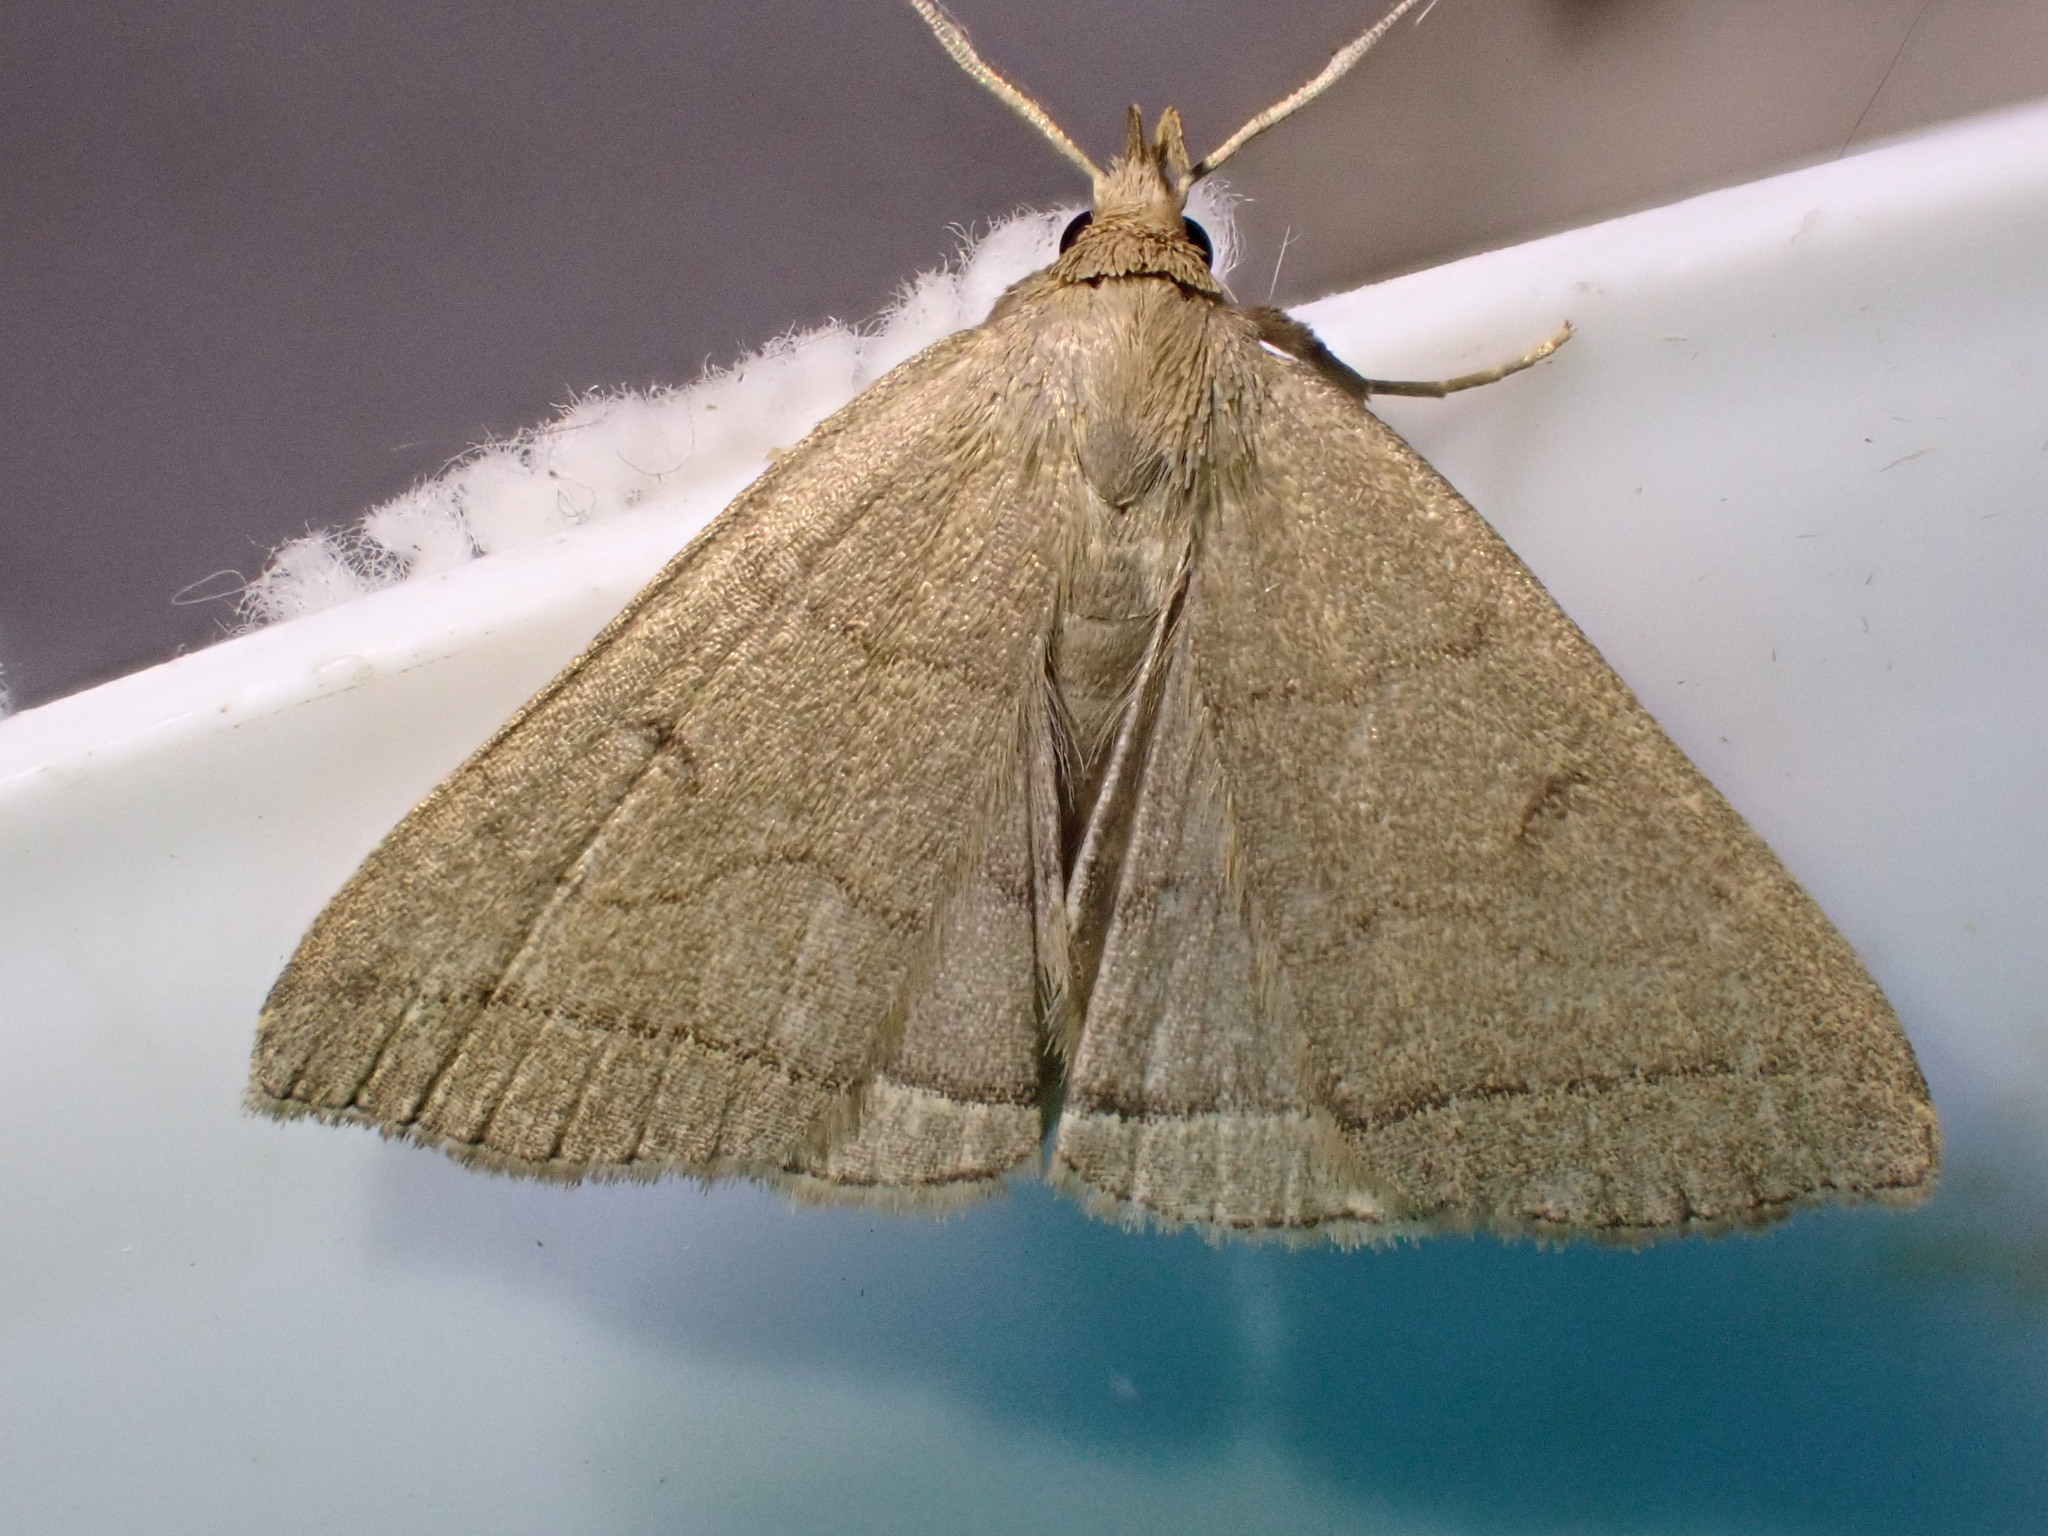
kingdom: Animalia
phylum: Arthropoda
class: Insecta
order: Lepidoptera
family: Erebidae
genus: Herminia
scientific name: Herminia tarsipennalis
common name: Fan-foot
